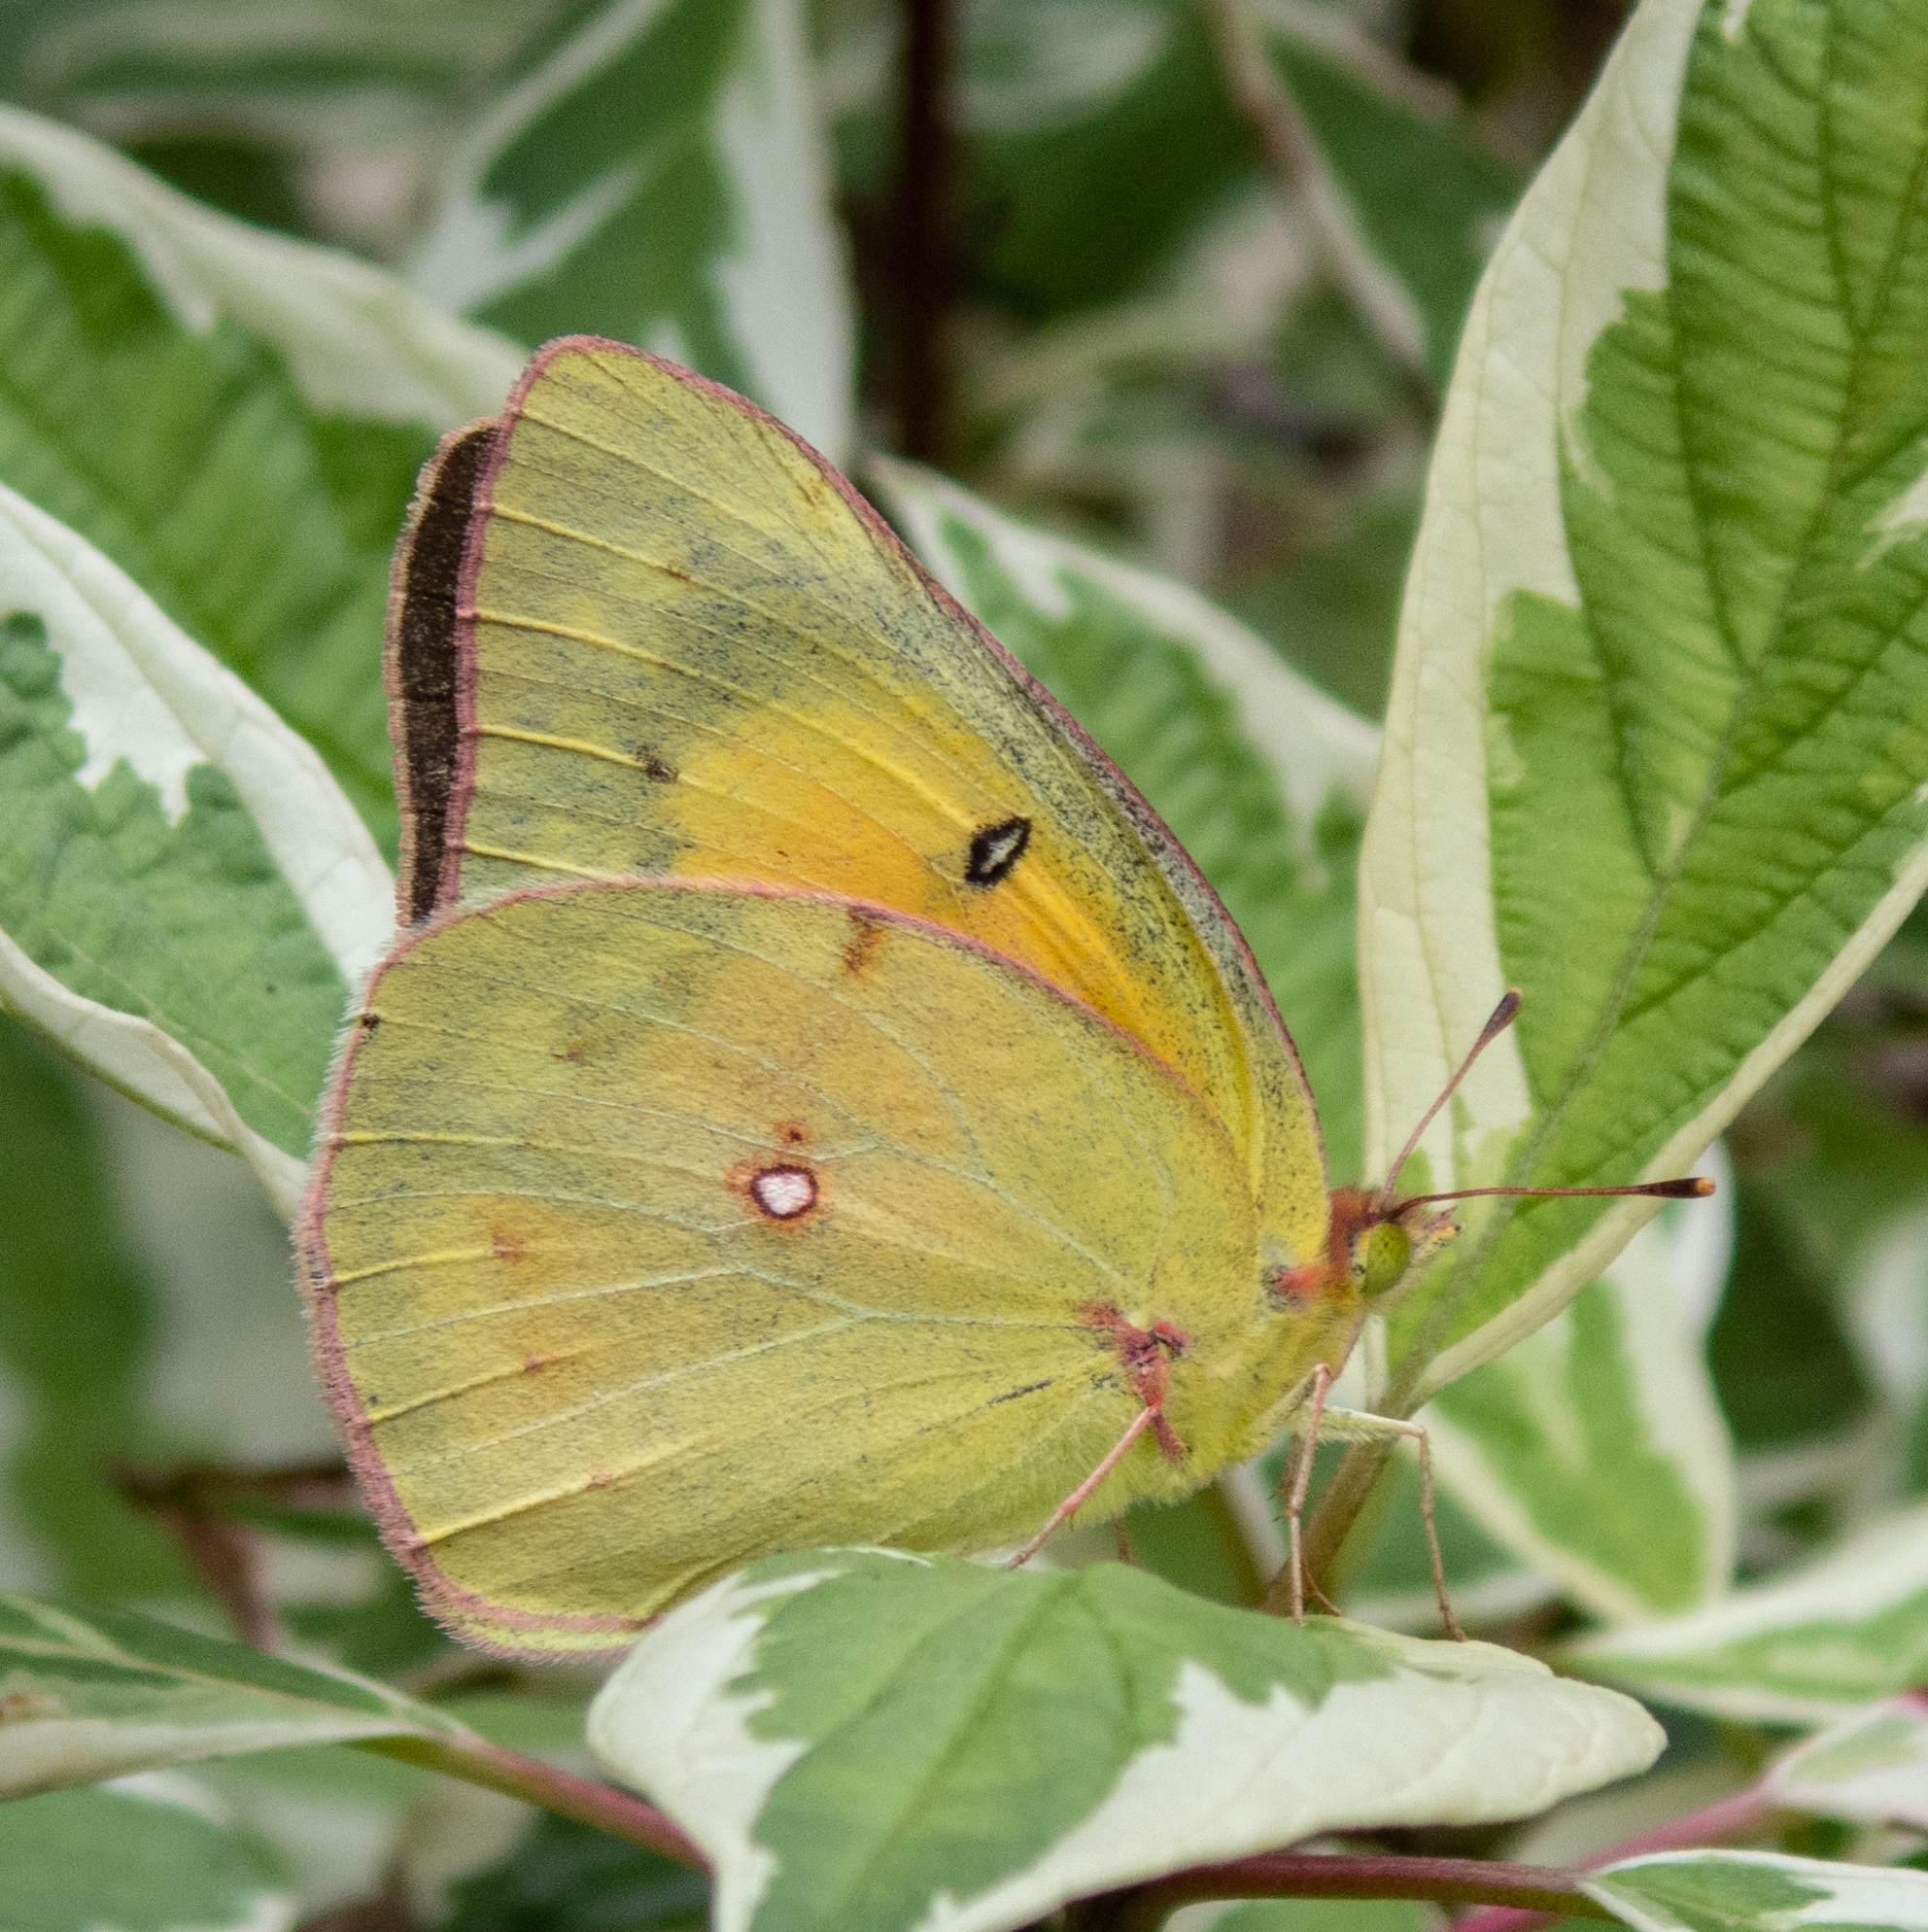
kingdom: Animalia
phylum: Arthropoda
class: Insecta
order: Lepidoptera
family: Pieridae
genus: Colias
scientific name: Colias eurytheme
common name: Alfalfa butterfly
